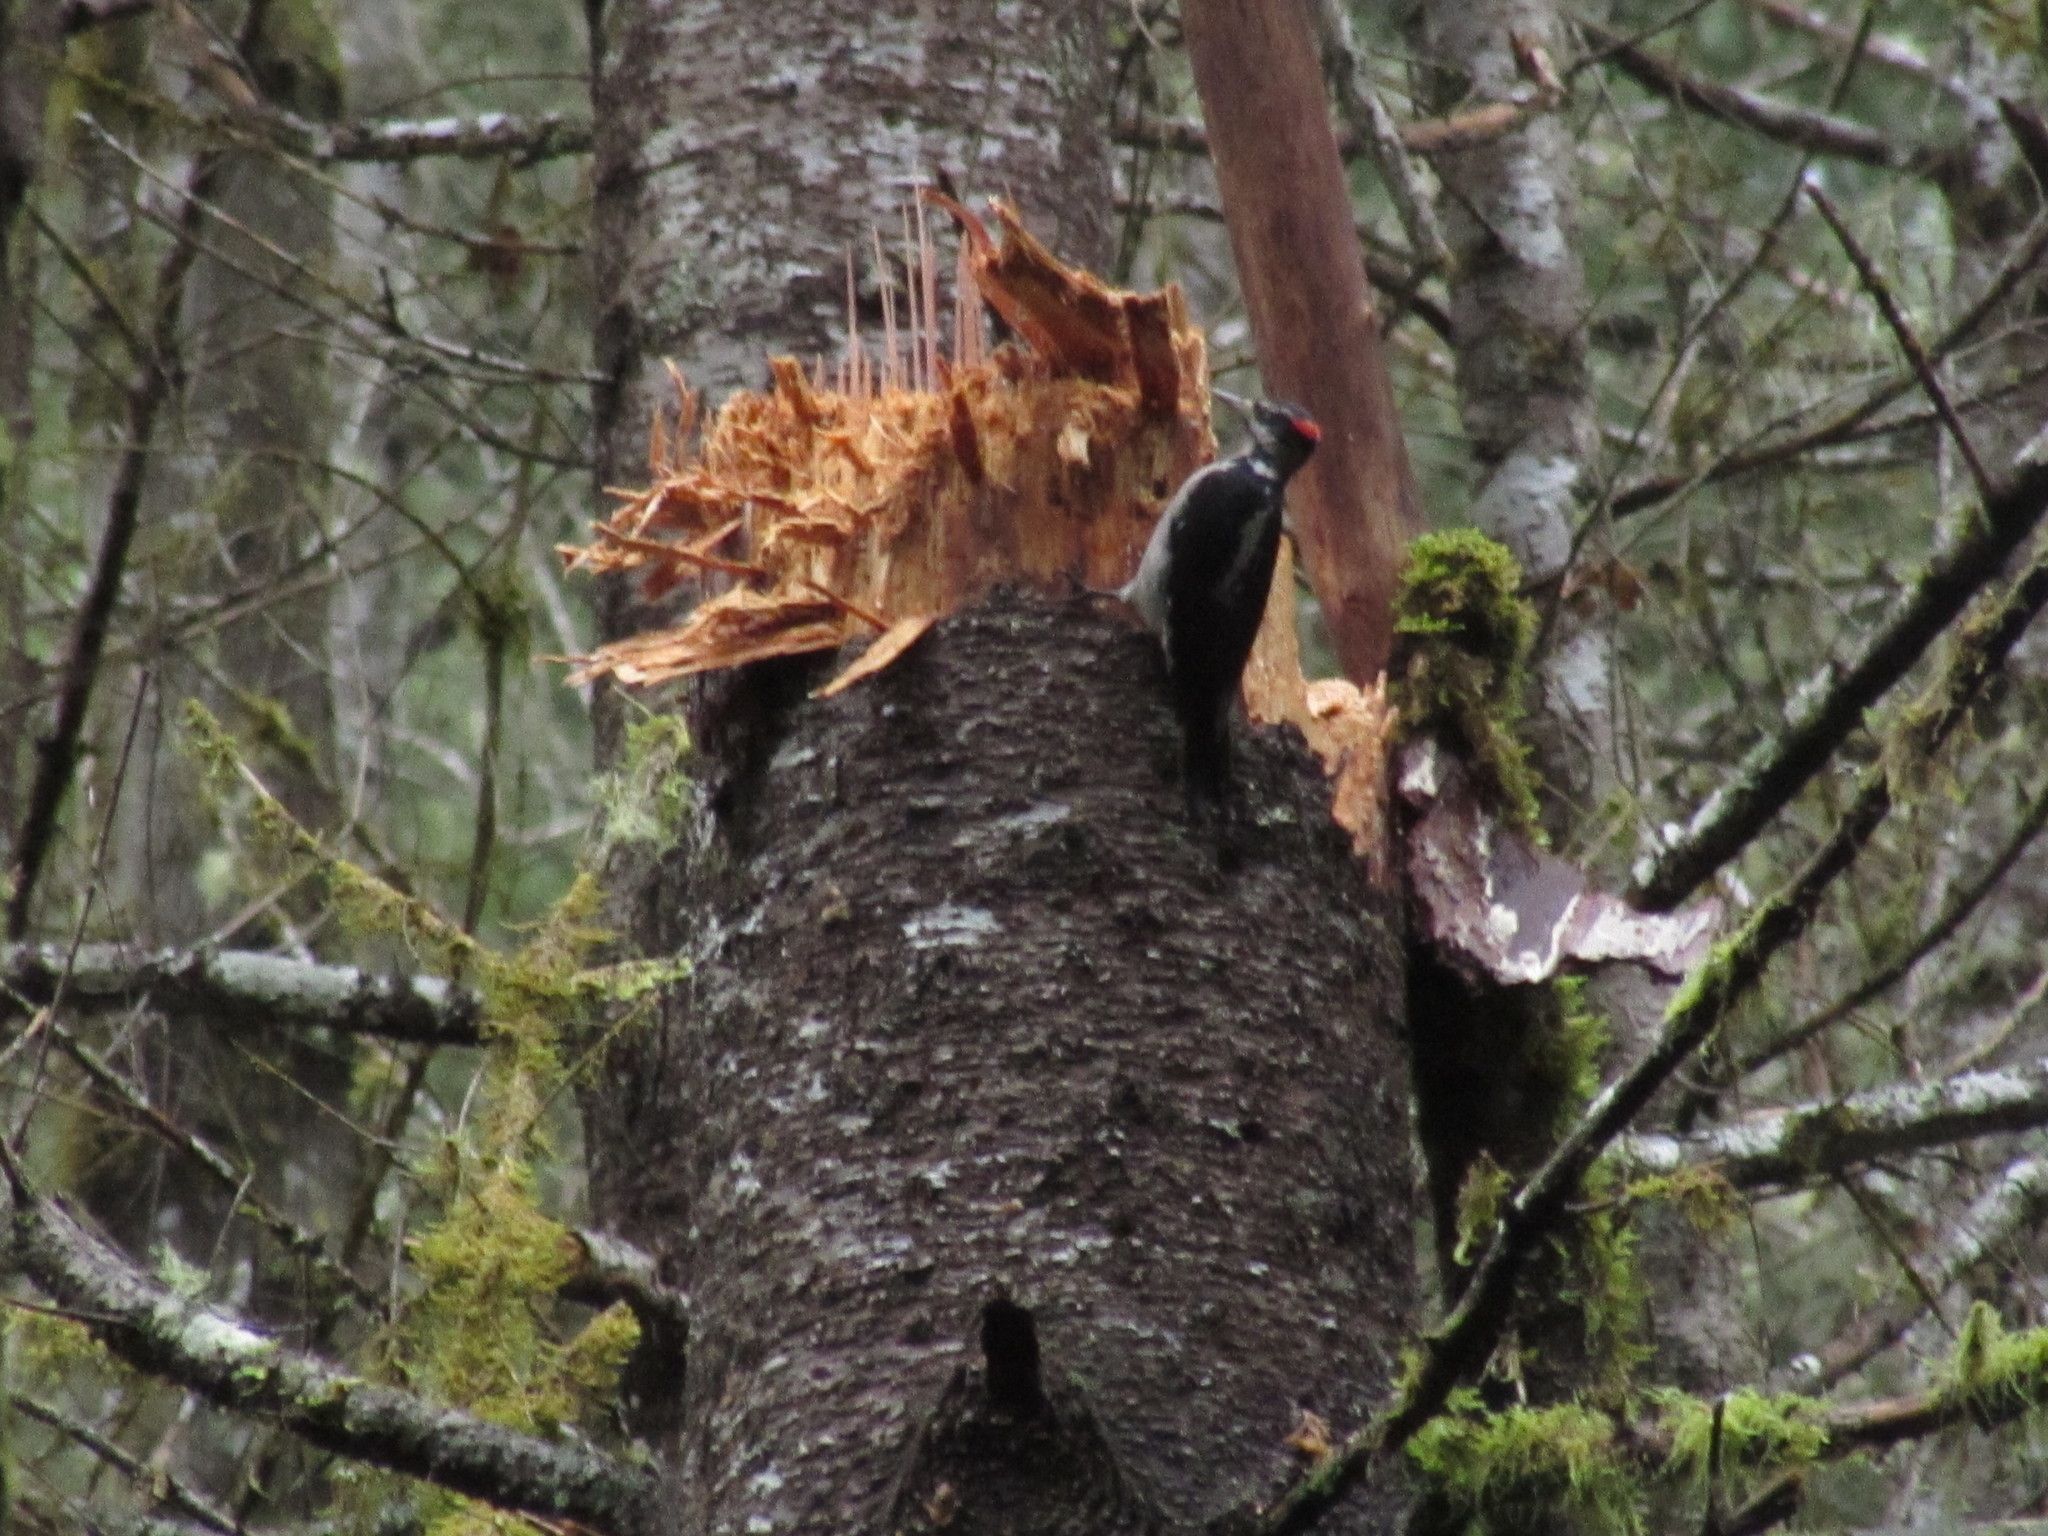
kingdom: Animalia
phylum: Chordata
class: Aves
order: Piciformes
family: Picidae
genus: Leuconotopicus
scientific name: Leuconotopicus villosus
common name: Hairy woodpecker
